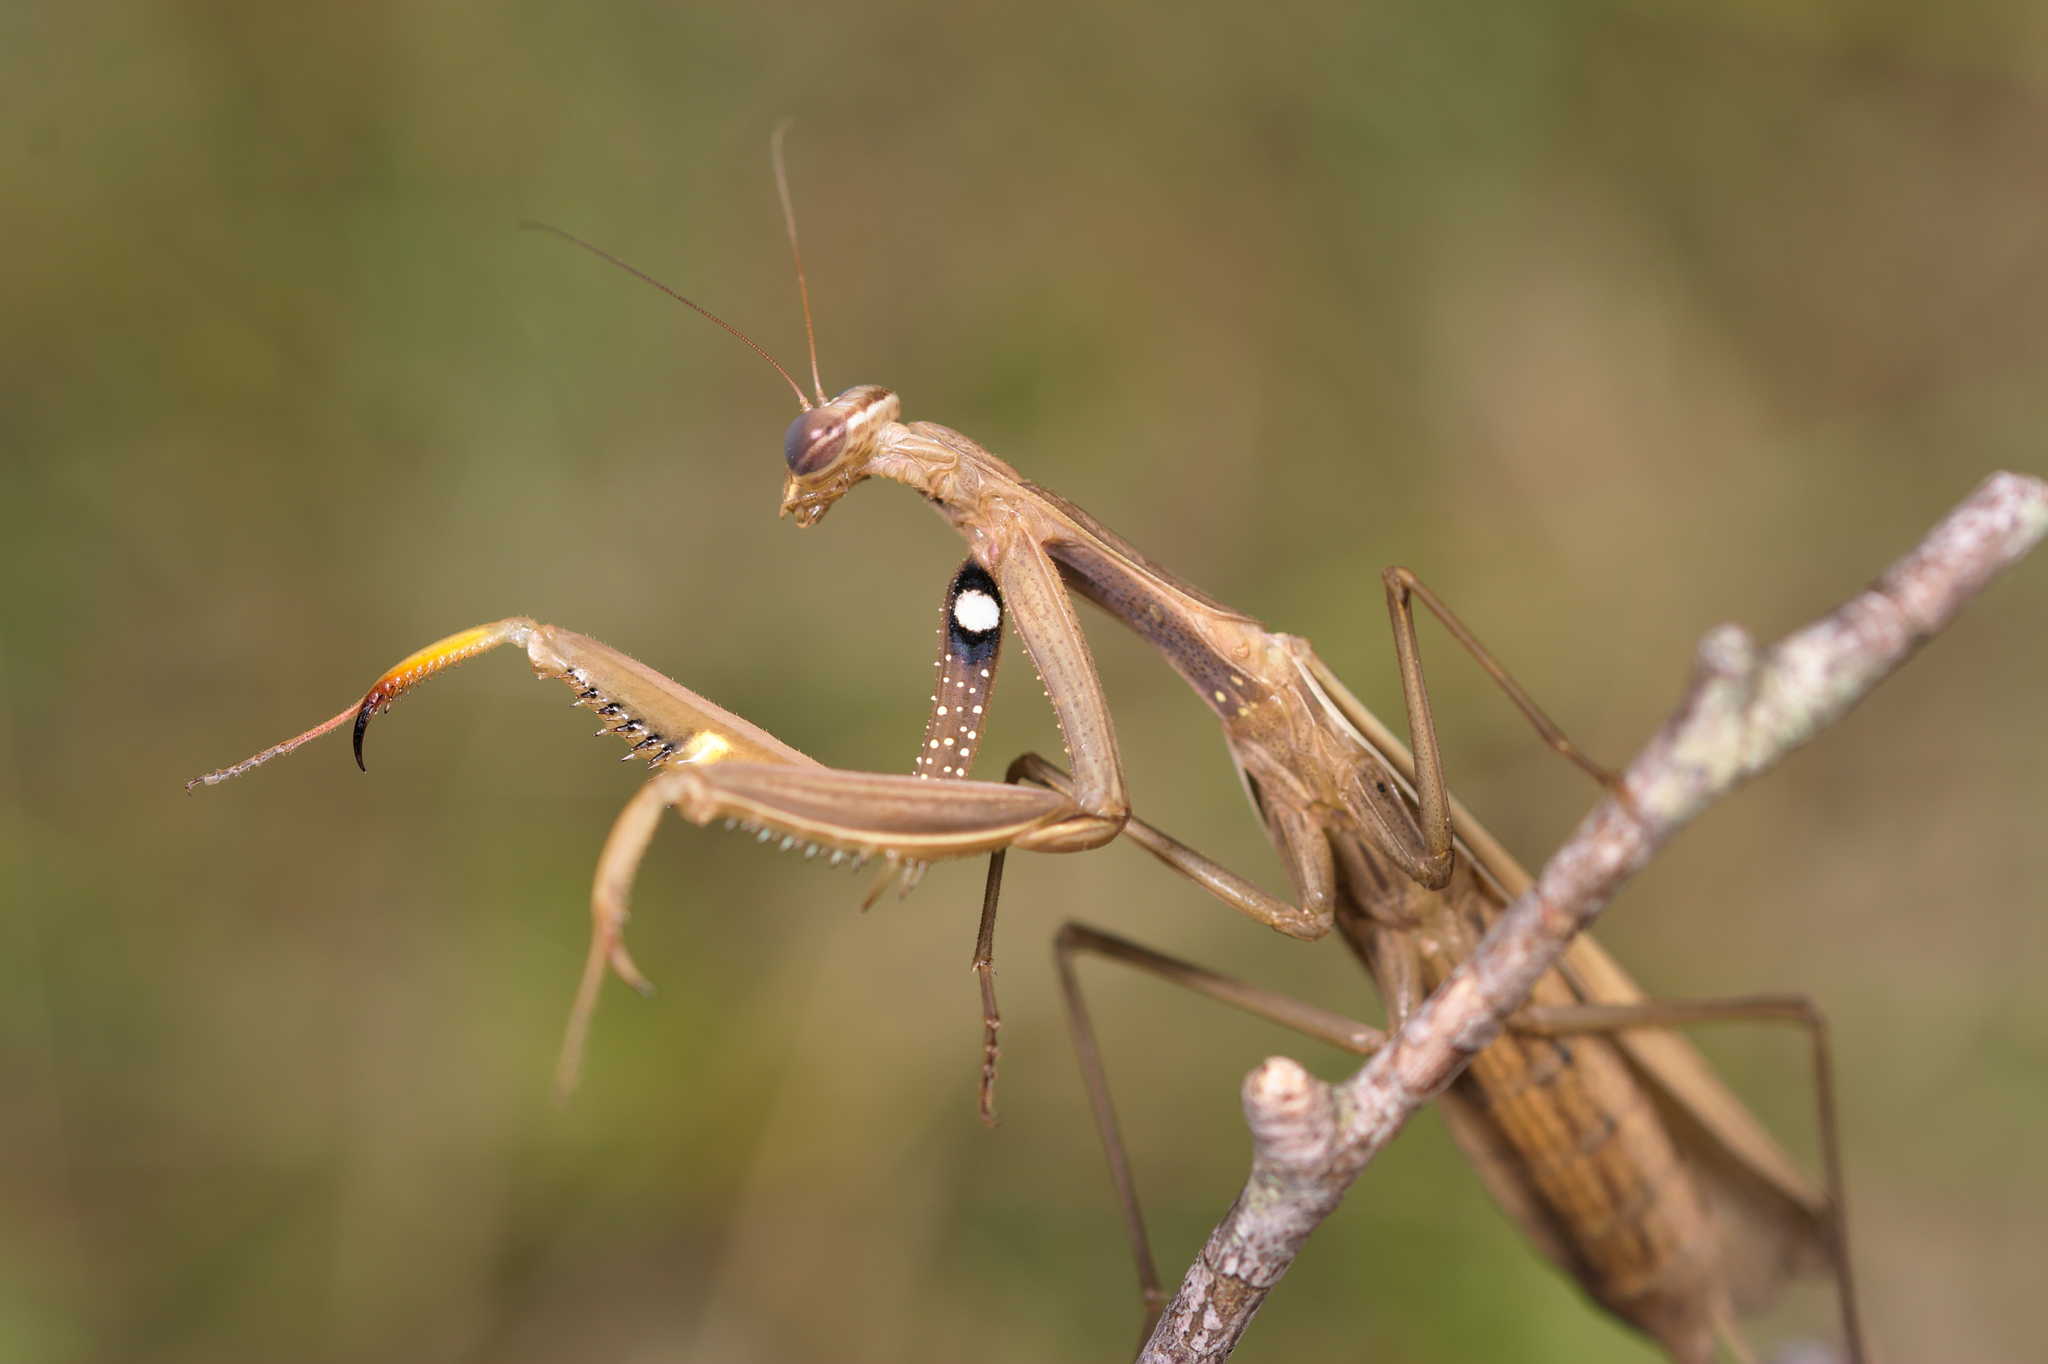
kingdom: Animalia
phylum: Arthropoda
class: Insecta
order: Mantodea
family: Mantidae
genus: Mantis
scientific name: Mantis religiosa
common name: Praying mantis
